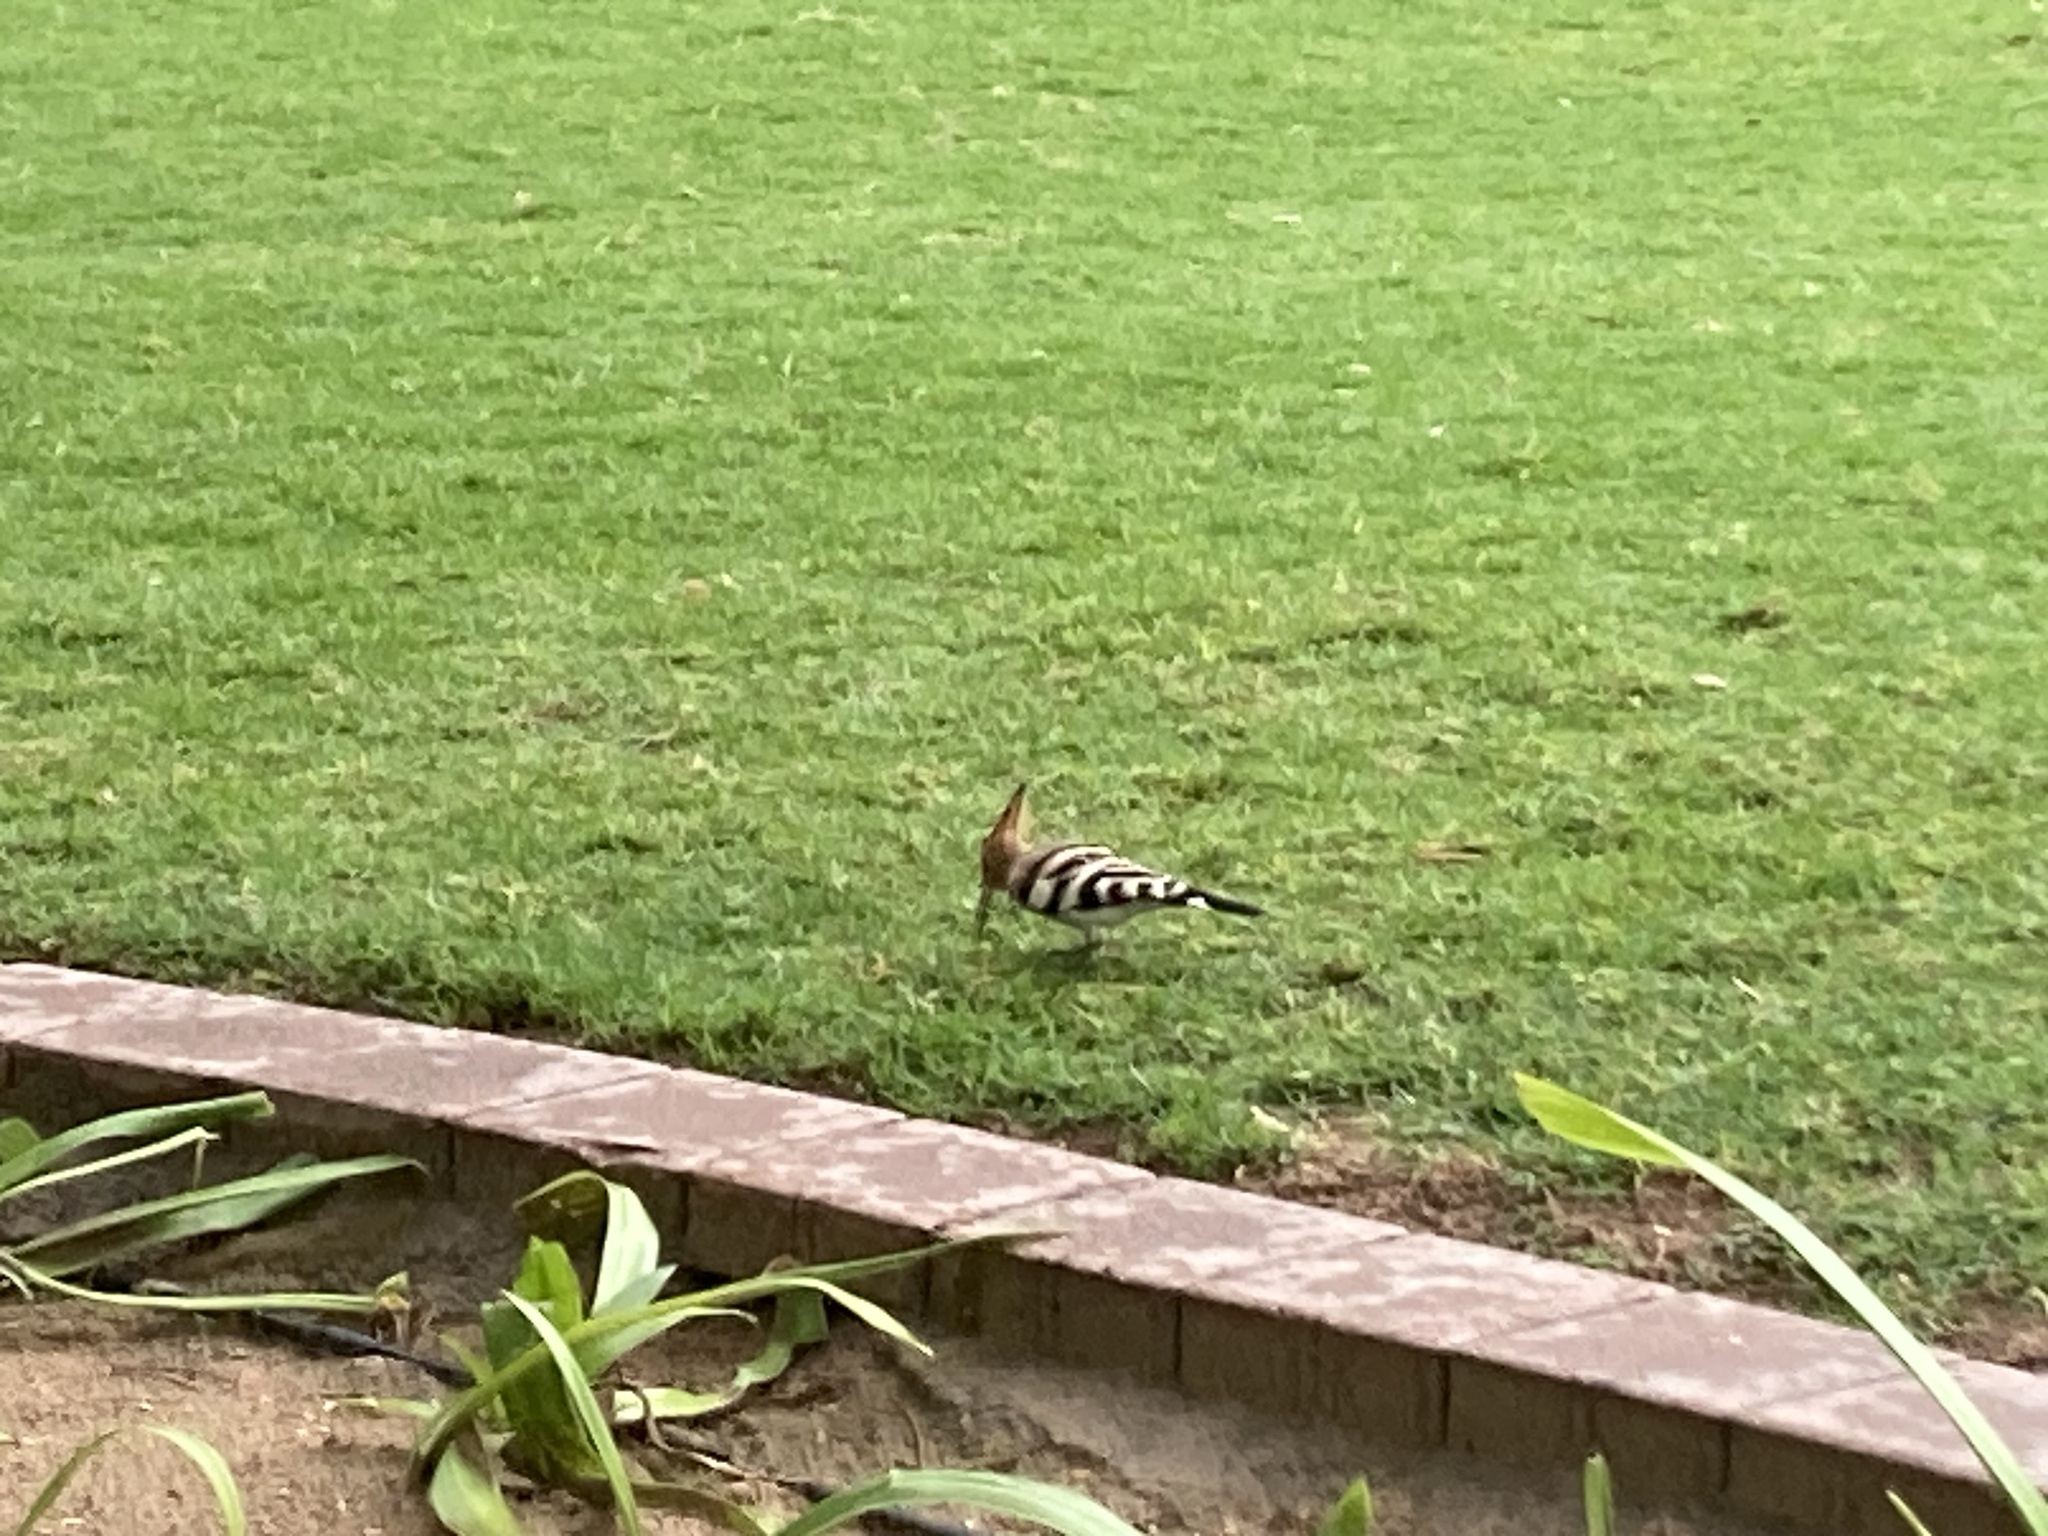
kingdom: Animalia
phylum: Chordata
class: Aves
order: Bucerotiformes
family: Upupidae
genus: Upupa
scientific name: Upupa epops
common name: Eurasian hoopoe
